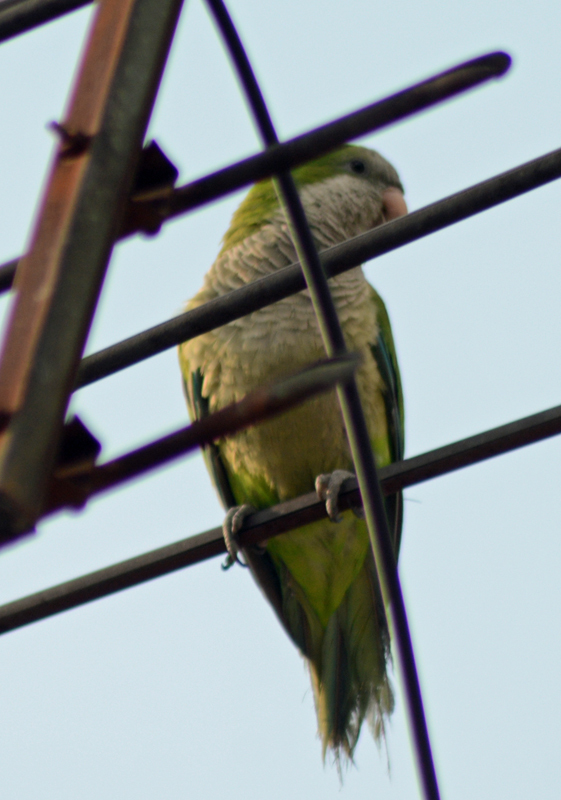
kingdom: Animalia
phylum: Chordata
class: Aves
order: Psittaciformes
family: Psittacidae
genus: Myiopsitta
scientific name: Myiopsitta monachus
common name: Monk parakeet
